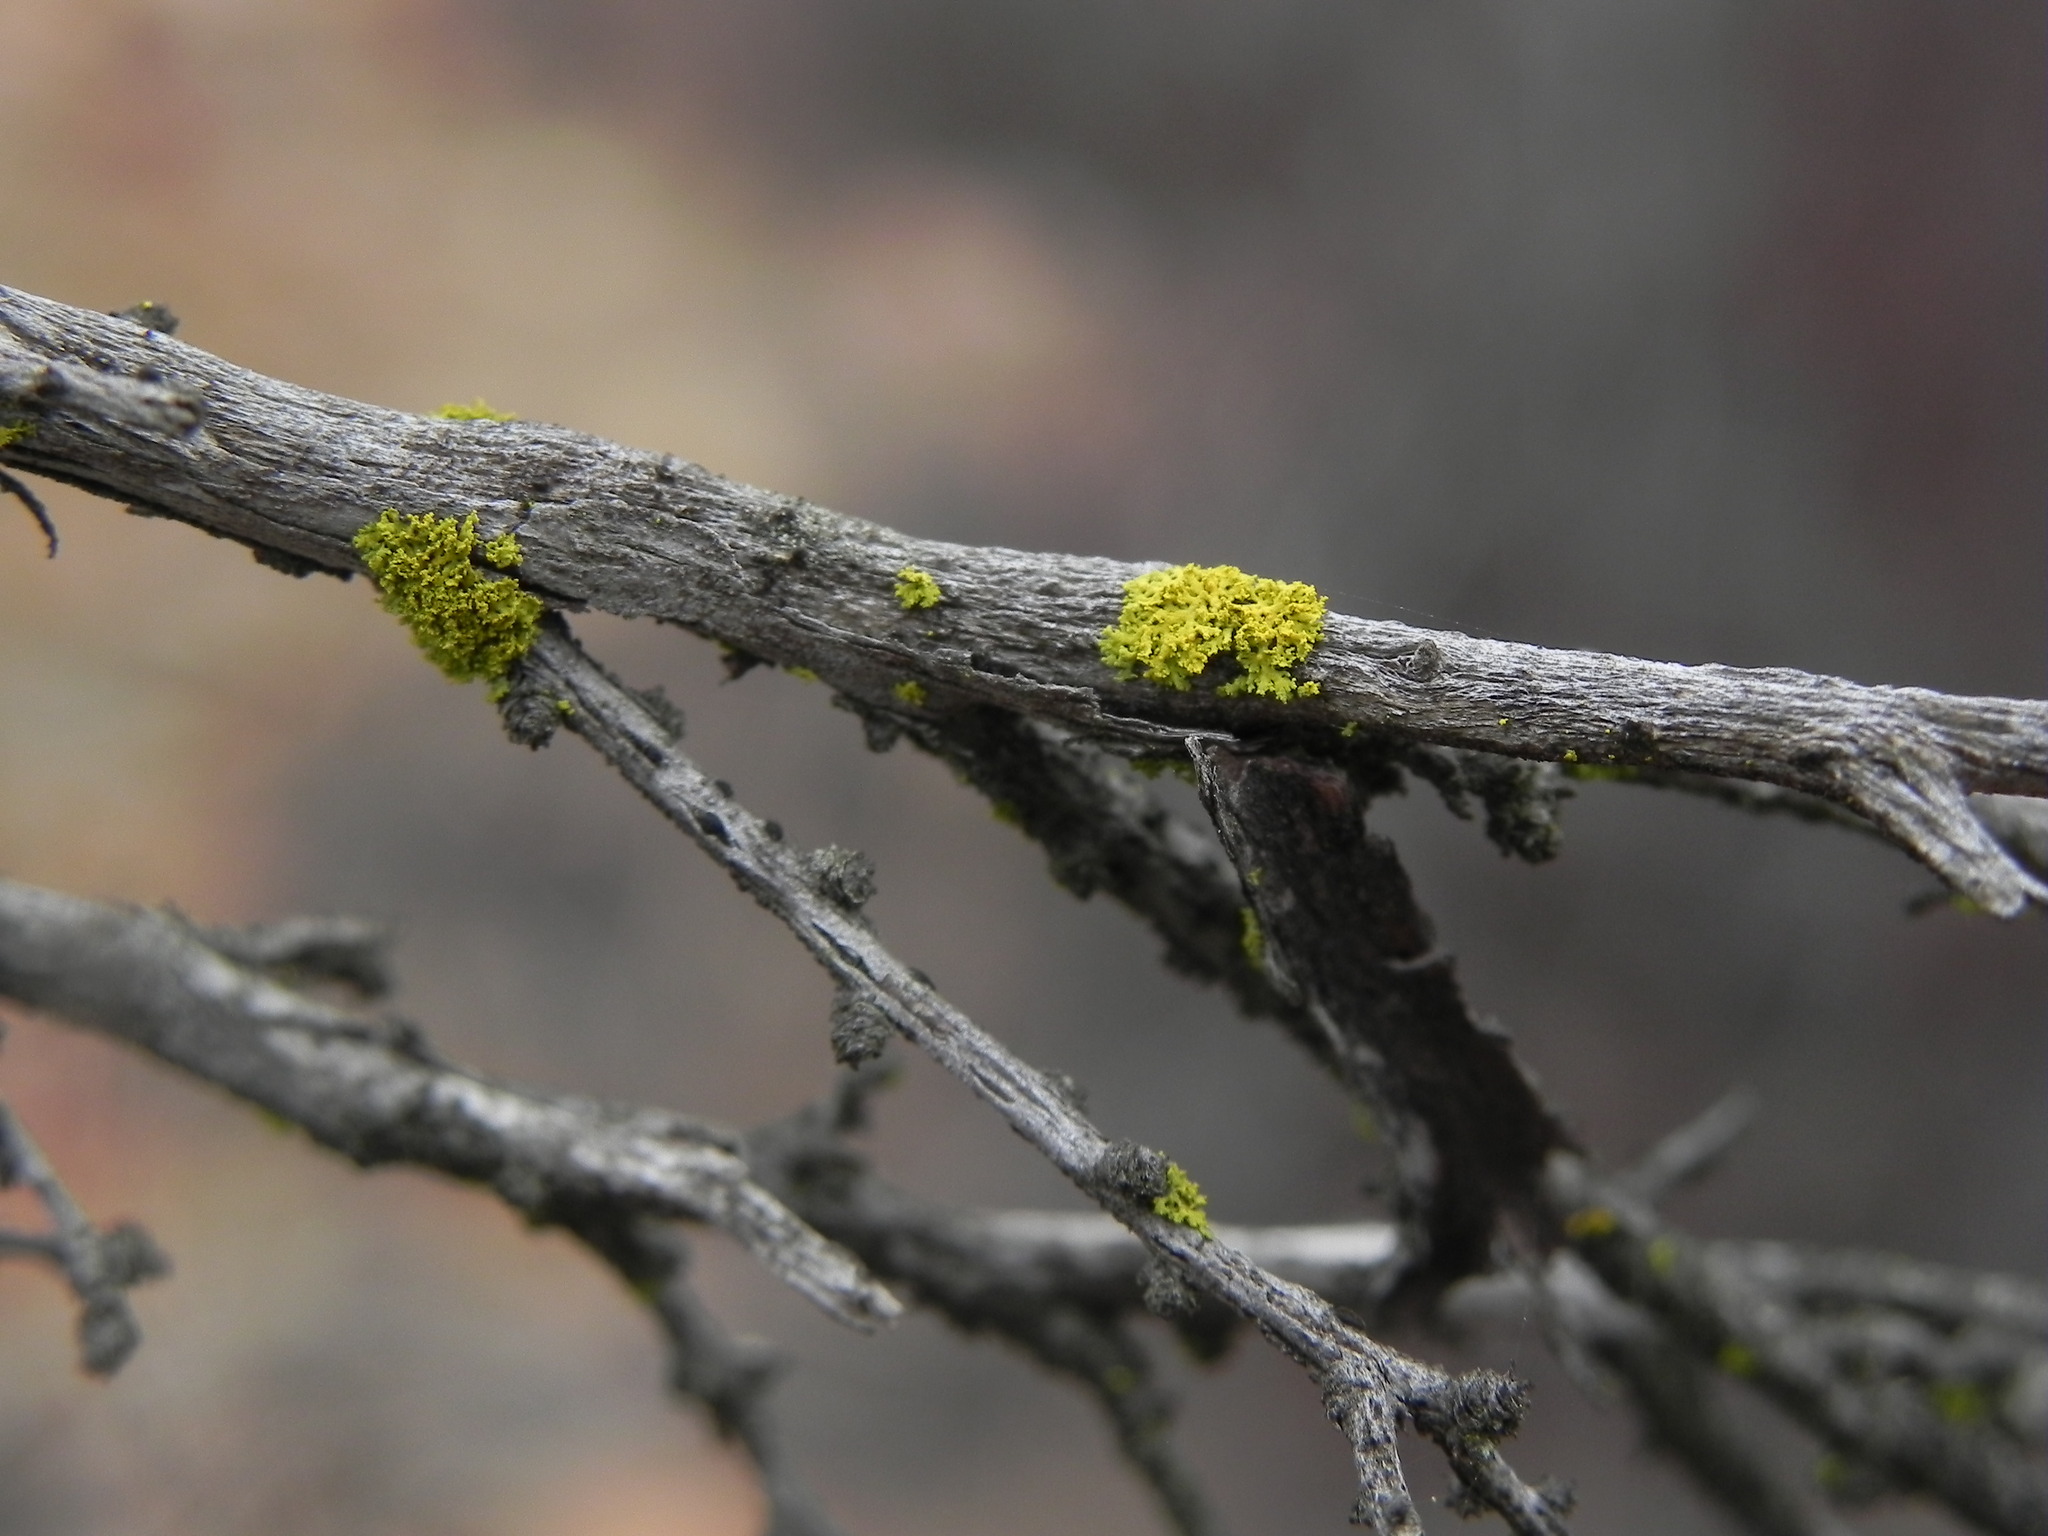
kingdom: Fungi
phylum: Ascomycota
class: Candelariomycetes
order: Candelariales
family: Candelariaceae
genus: Candelaria
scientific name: Candelaria pacifica
